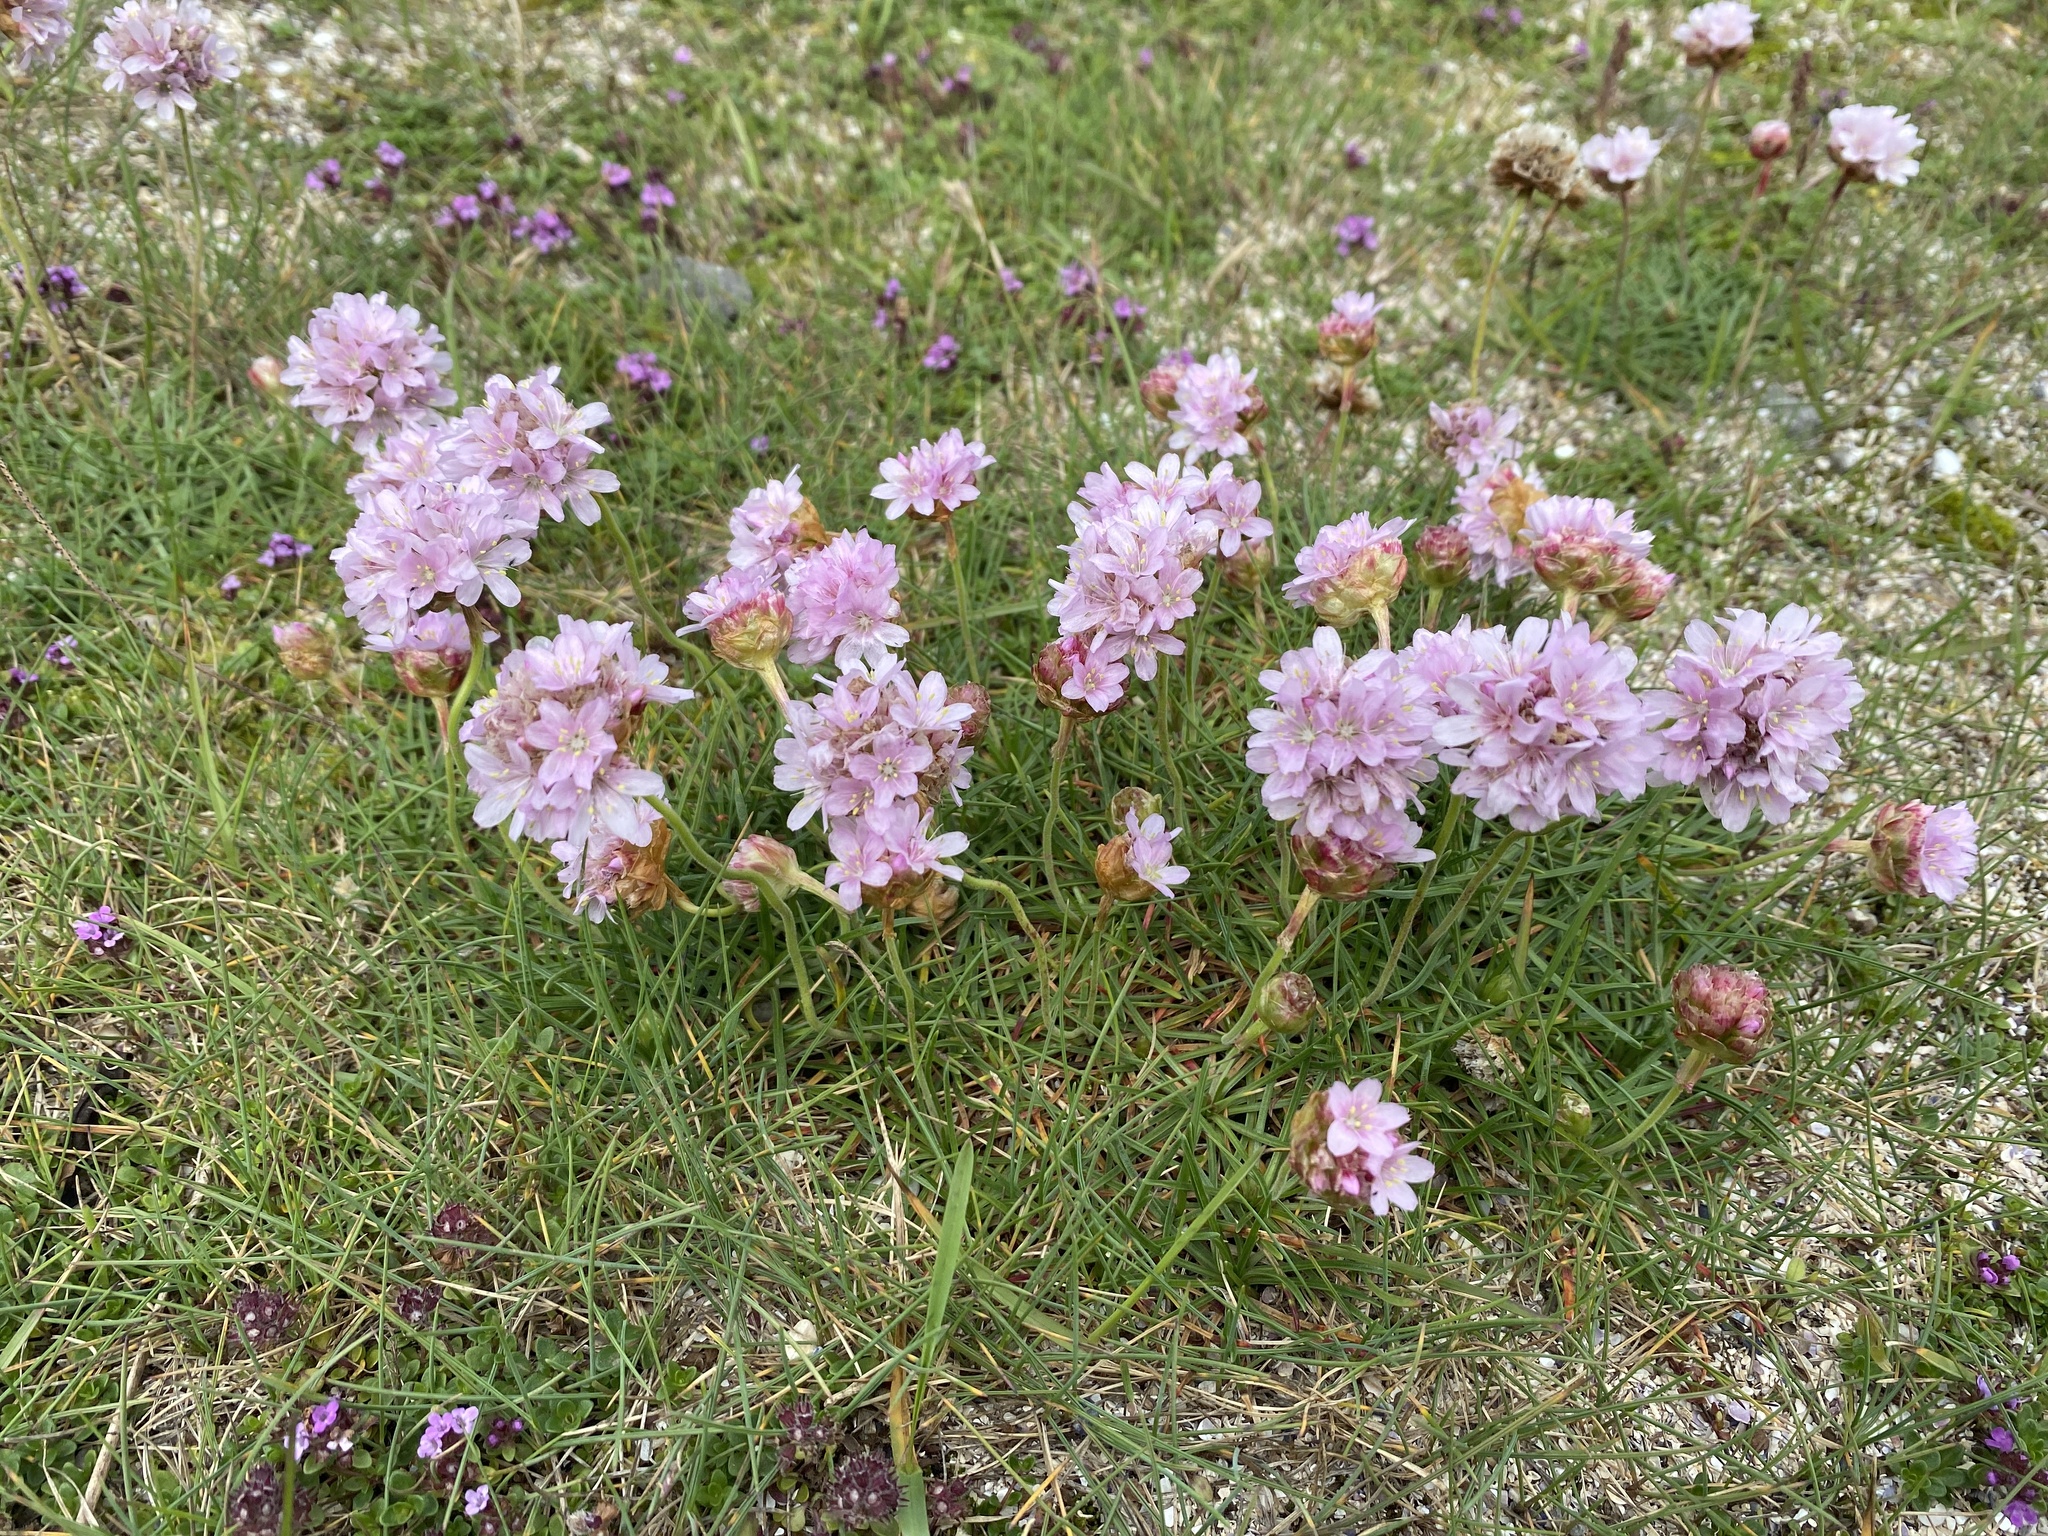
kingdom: Plantae
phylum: Tracheophyta
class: Magnoliopsida
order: Caryophyllales
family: Plumbaginaceae
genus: Armeria
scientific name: Armeria maritima
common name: Thrift
